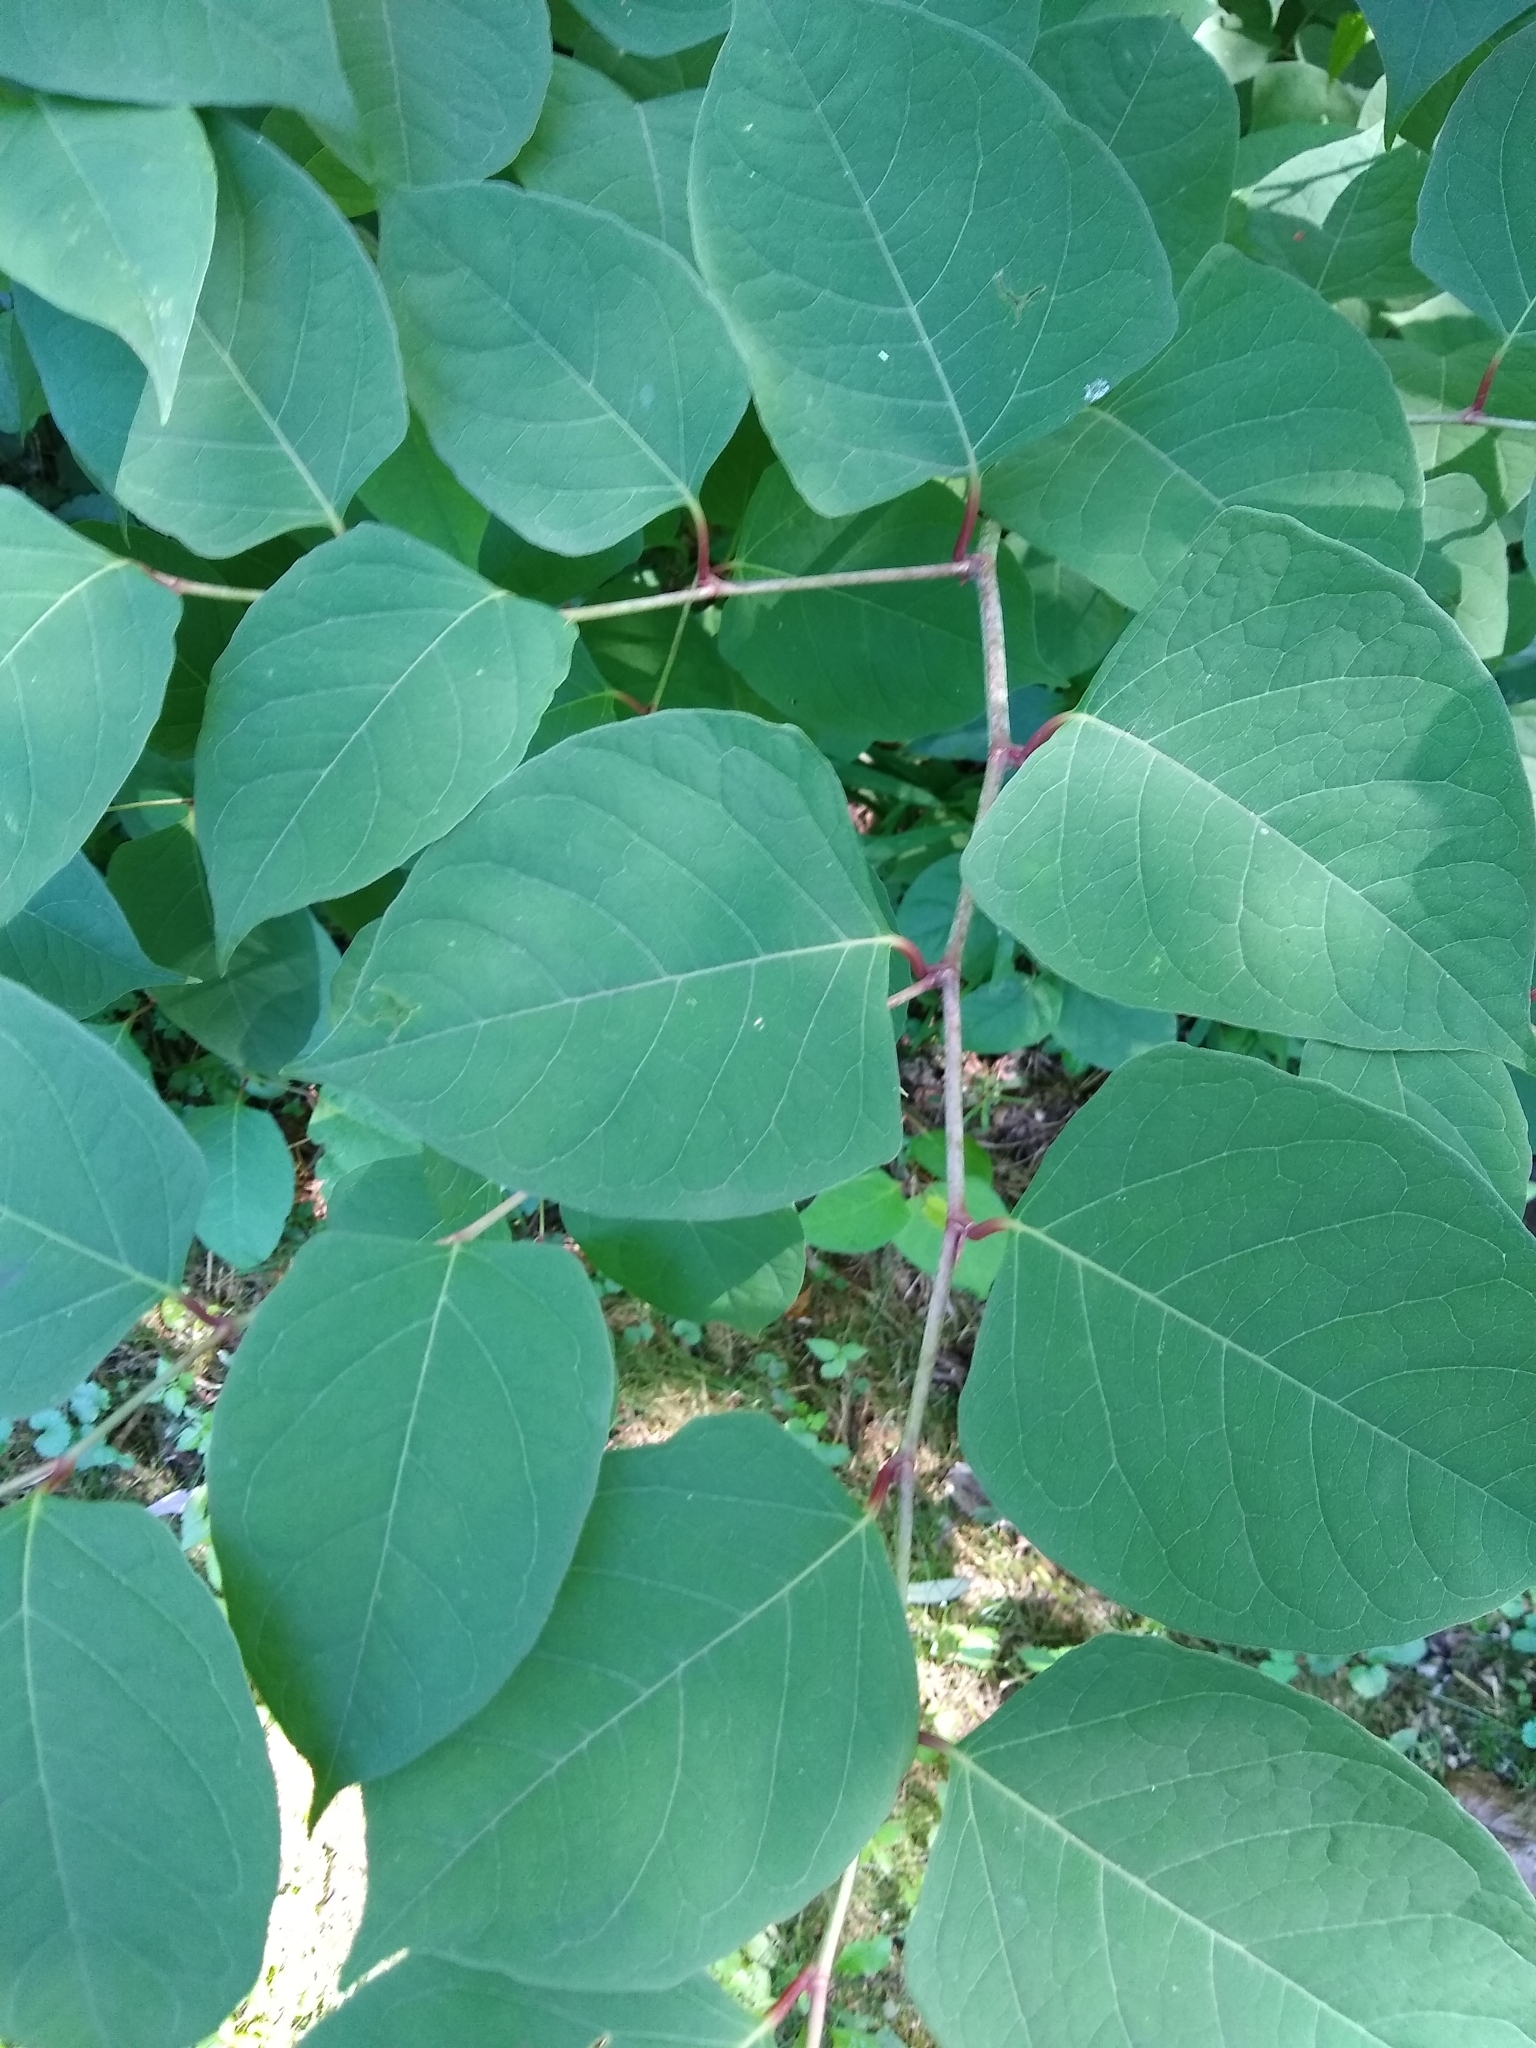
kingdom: Plantae
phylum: Tracheophyta
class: Magnoliopsida
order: Caryophyllales
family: Polygonaceae
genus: Reynoutria
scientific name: Reynoutria japonica
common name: Japanese knotweed
